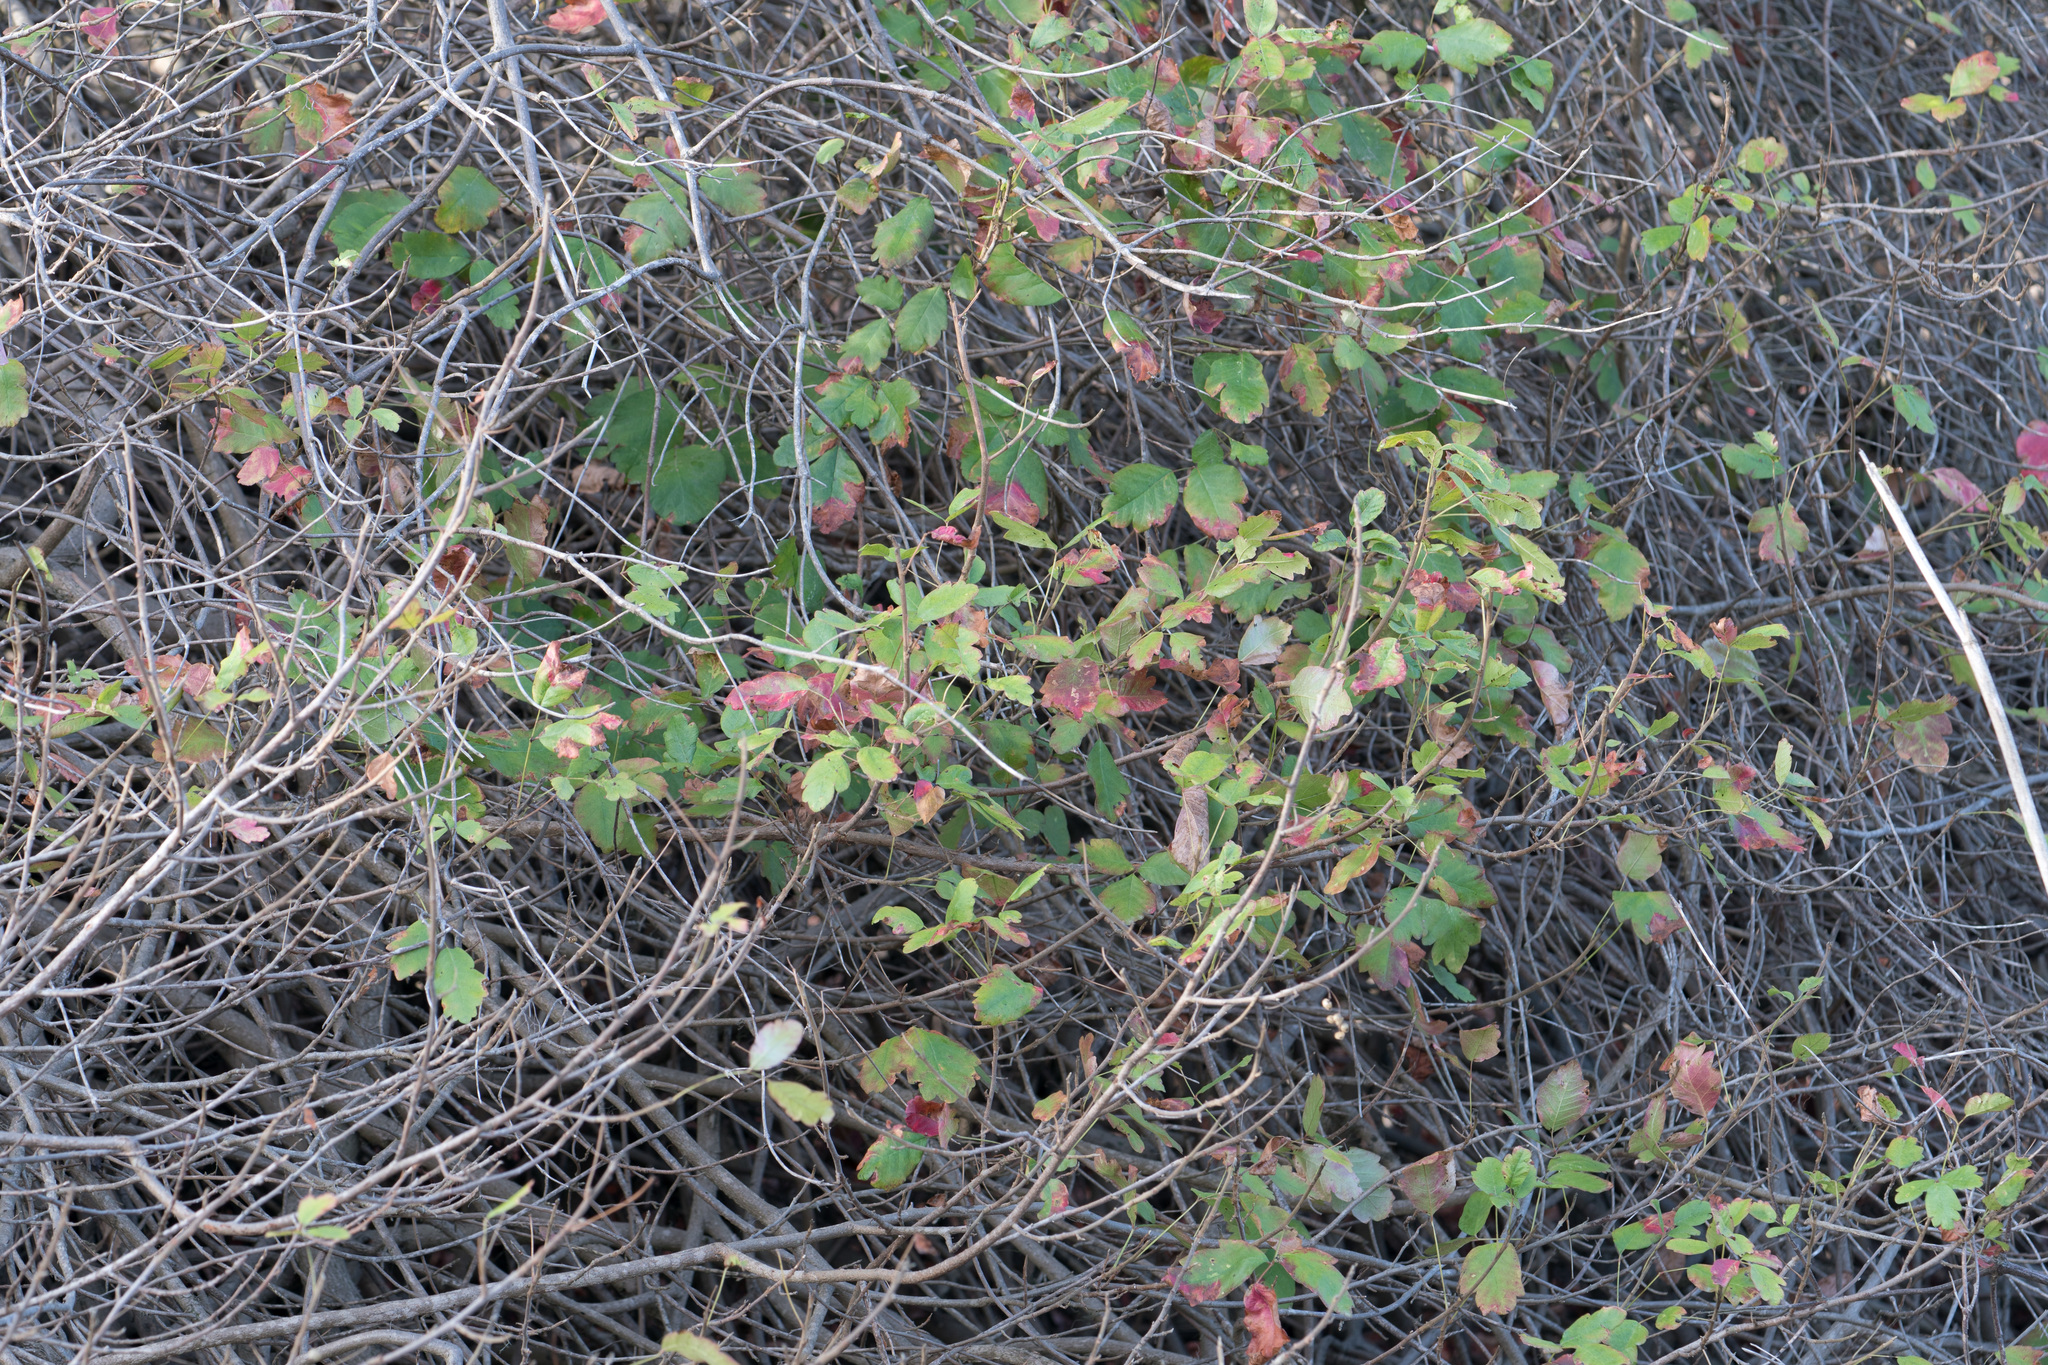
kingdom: Plantae
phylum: Tracheophyta
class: Magnoliopsida
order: Sapindales
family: Anacardiaceae
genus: Toxicodendron
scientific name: Toxicodendron diversilobum
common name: Pacific poison-oak
